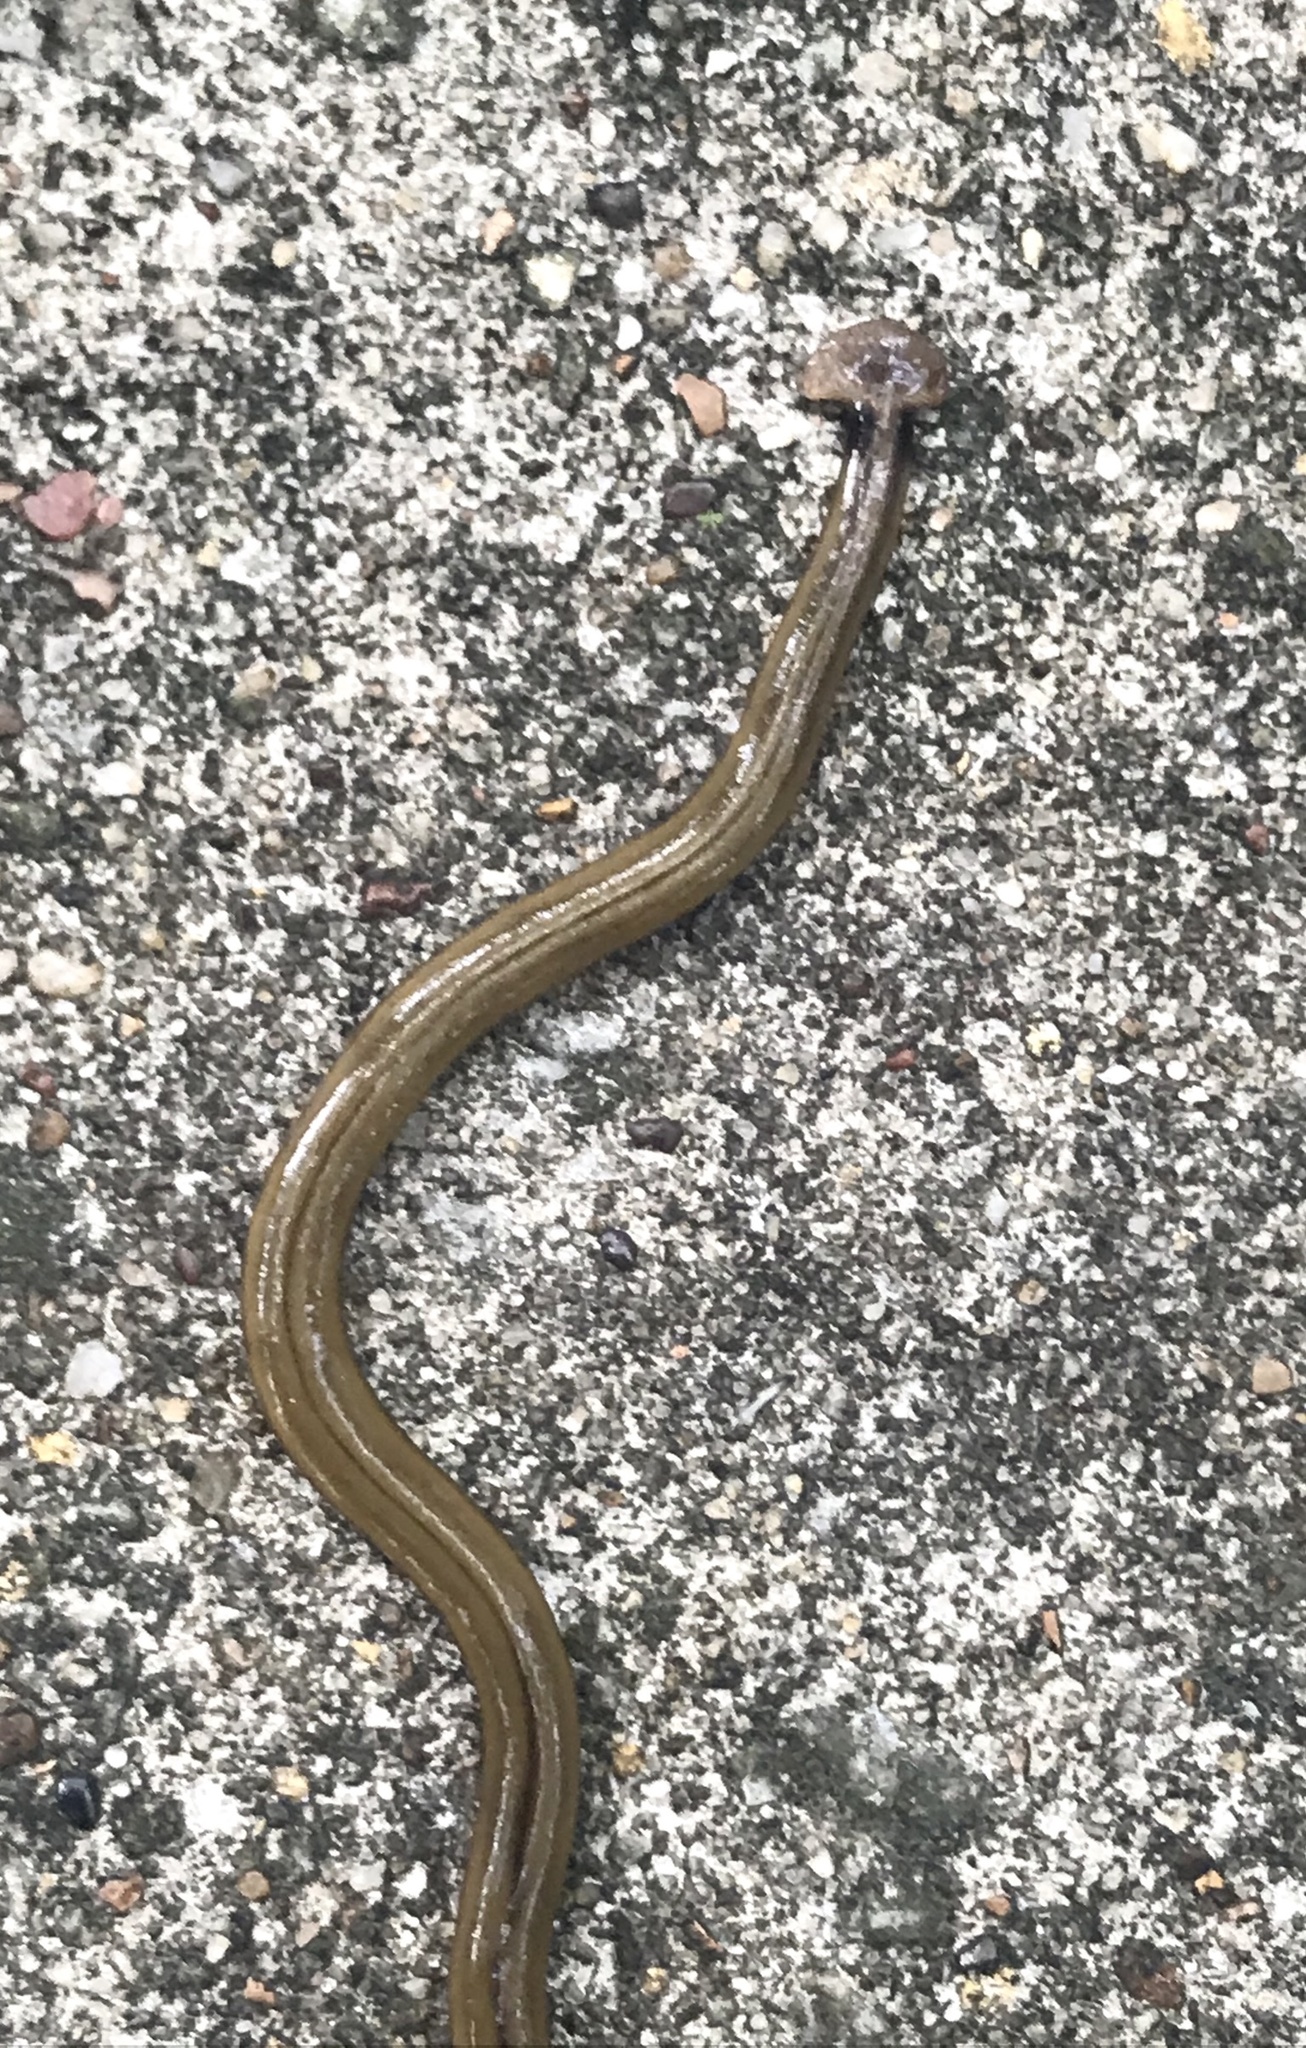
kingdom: Animalia
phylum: Platyhelminthes
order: Tricladida
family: Geoplanidae
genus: Bipalium
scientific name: Bipalium kewense
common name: Hammerhead flatworm
